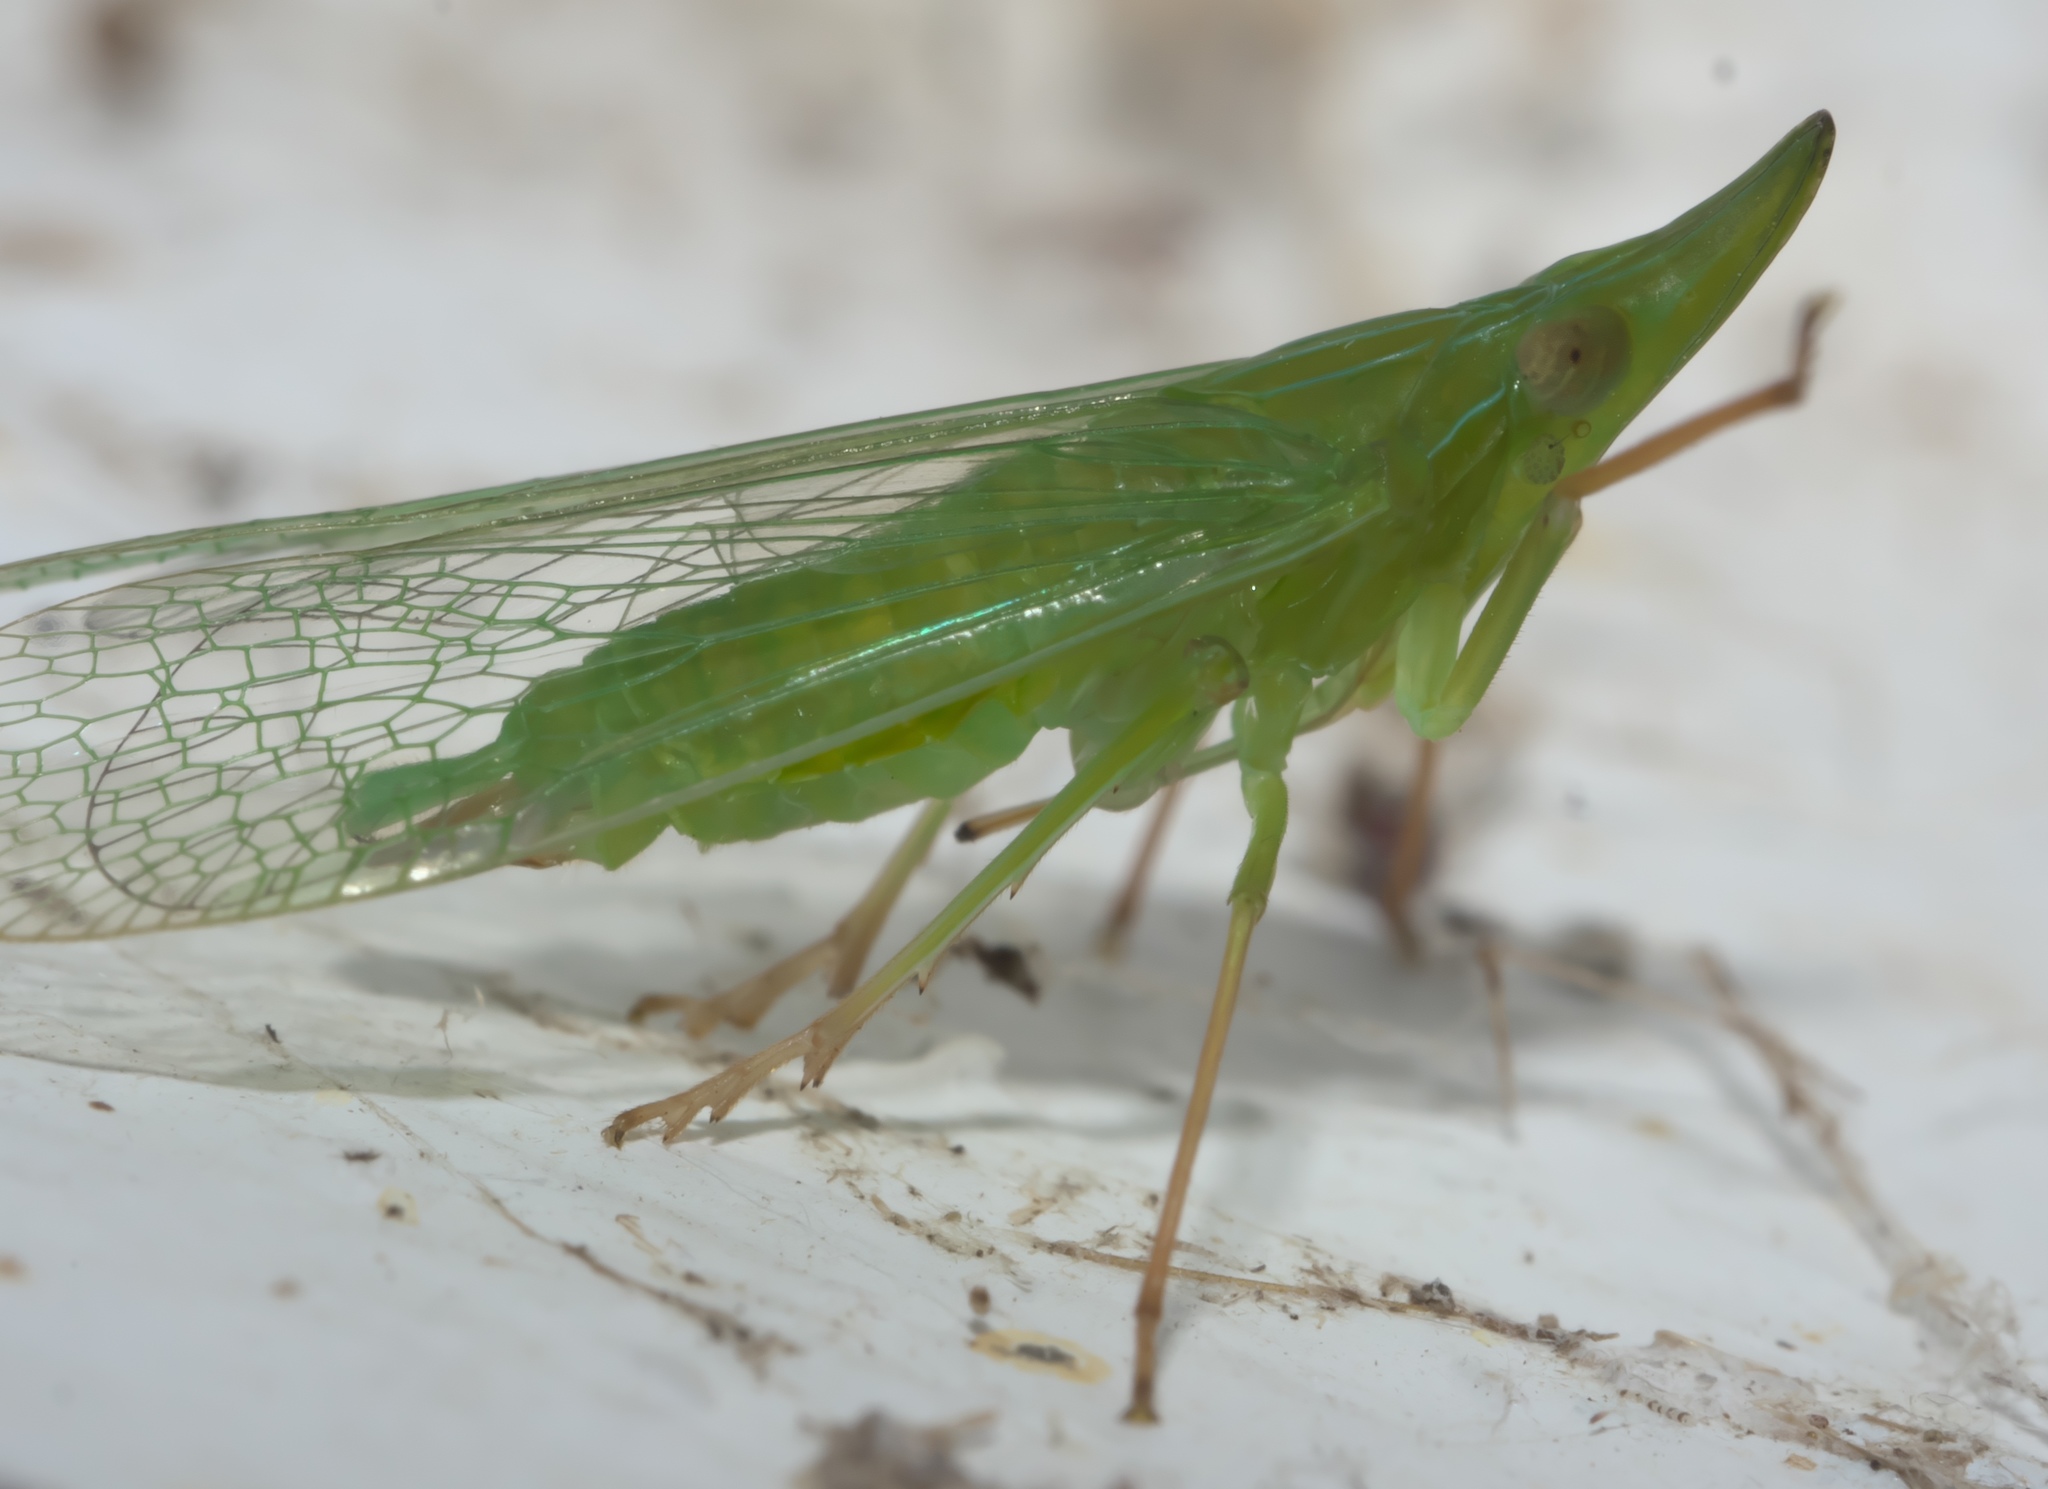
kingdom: Animalia
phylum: Arthropoda
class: Insecta
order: Hemiptera
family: Dictyopharidae
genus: Rhynchomitra
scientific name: Rhynchomitra microrhina
